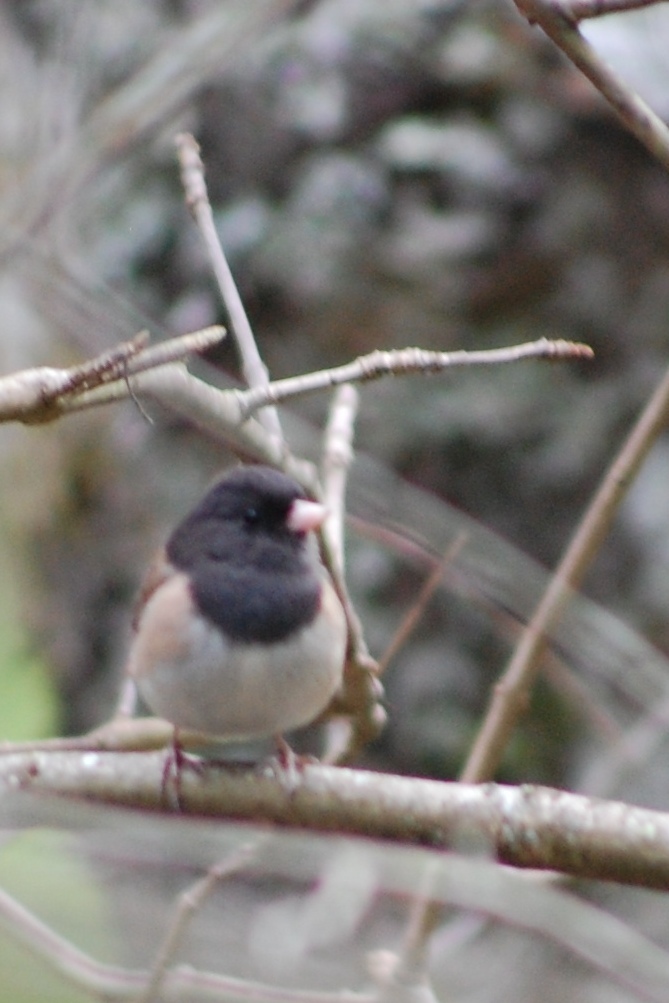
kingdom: Animalia
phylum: Chordata
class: Aves
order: Passeriformes
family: Passerellidae
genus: Junco
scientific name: Junco hyemalis
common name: Dark-eyed junco
